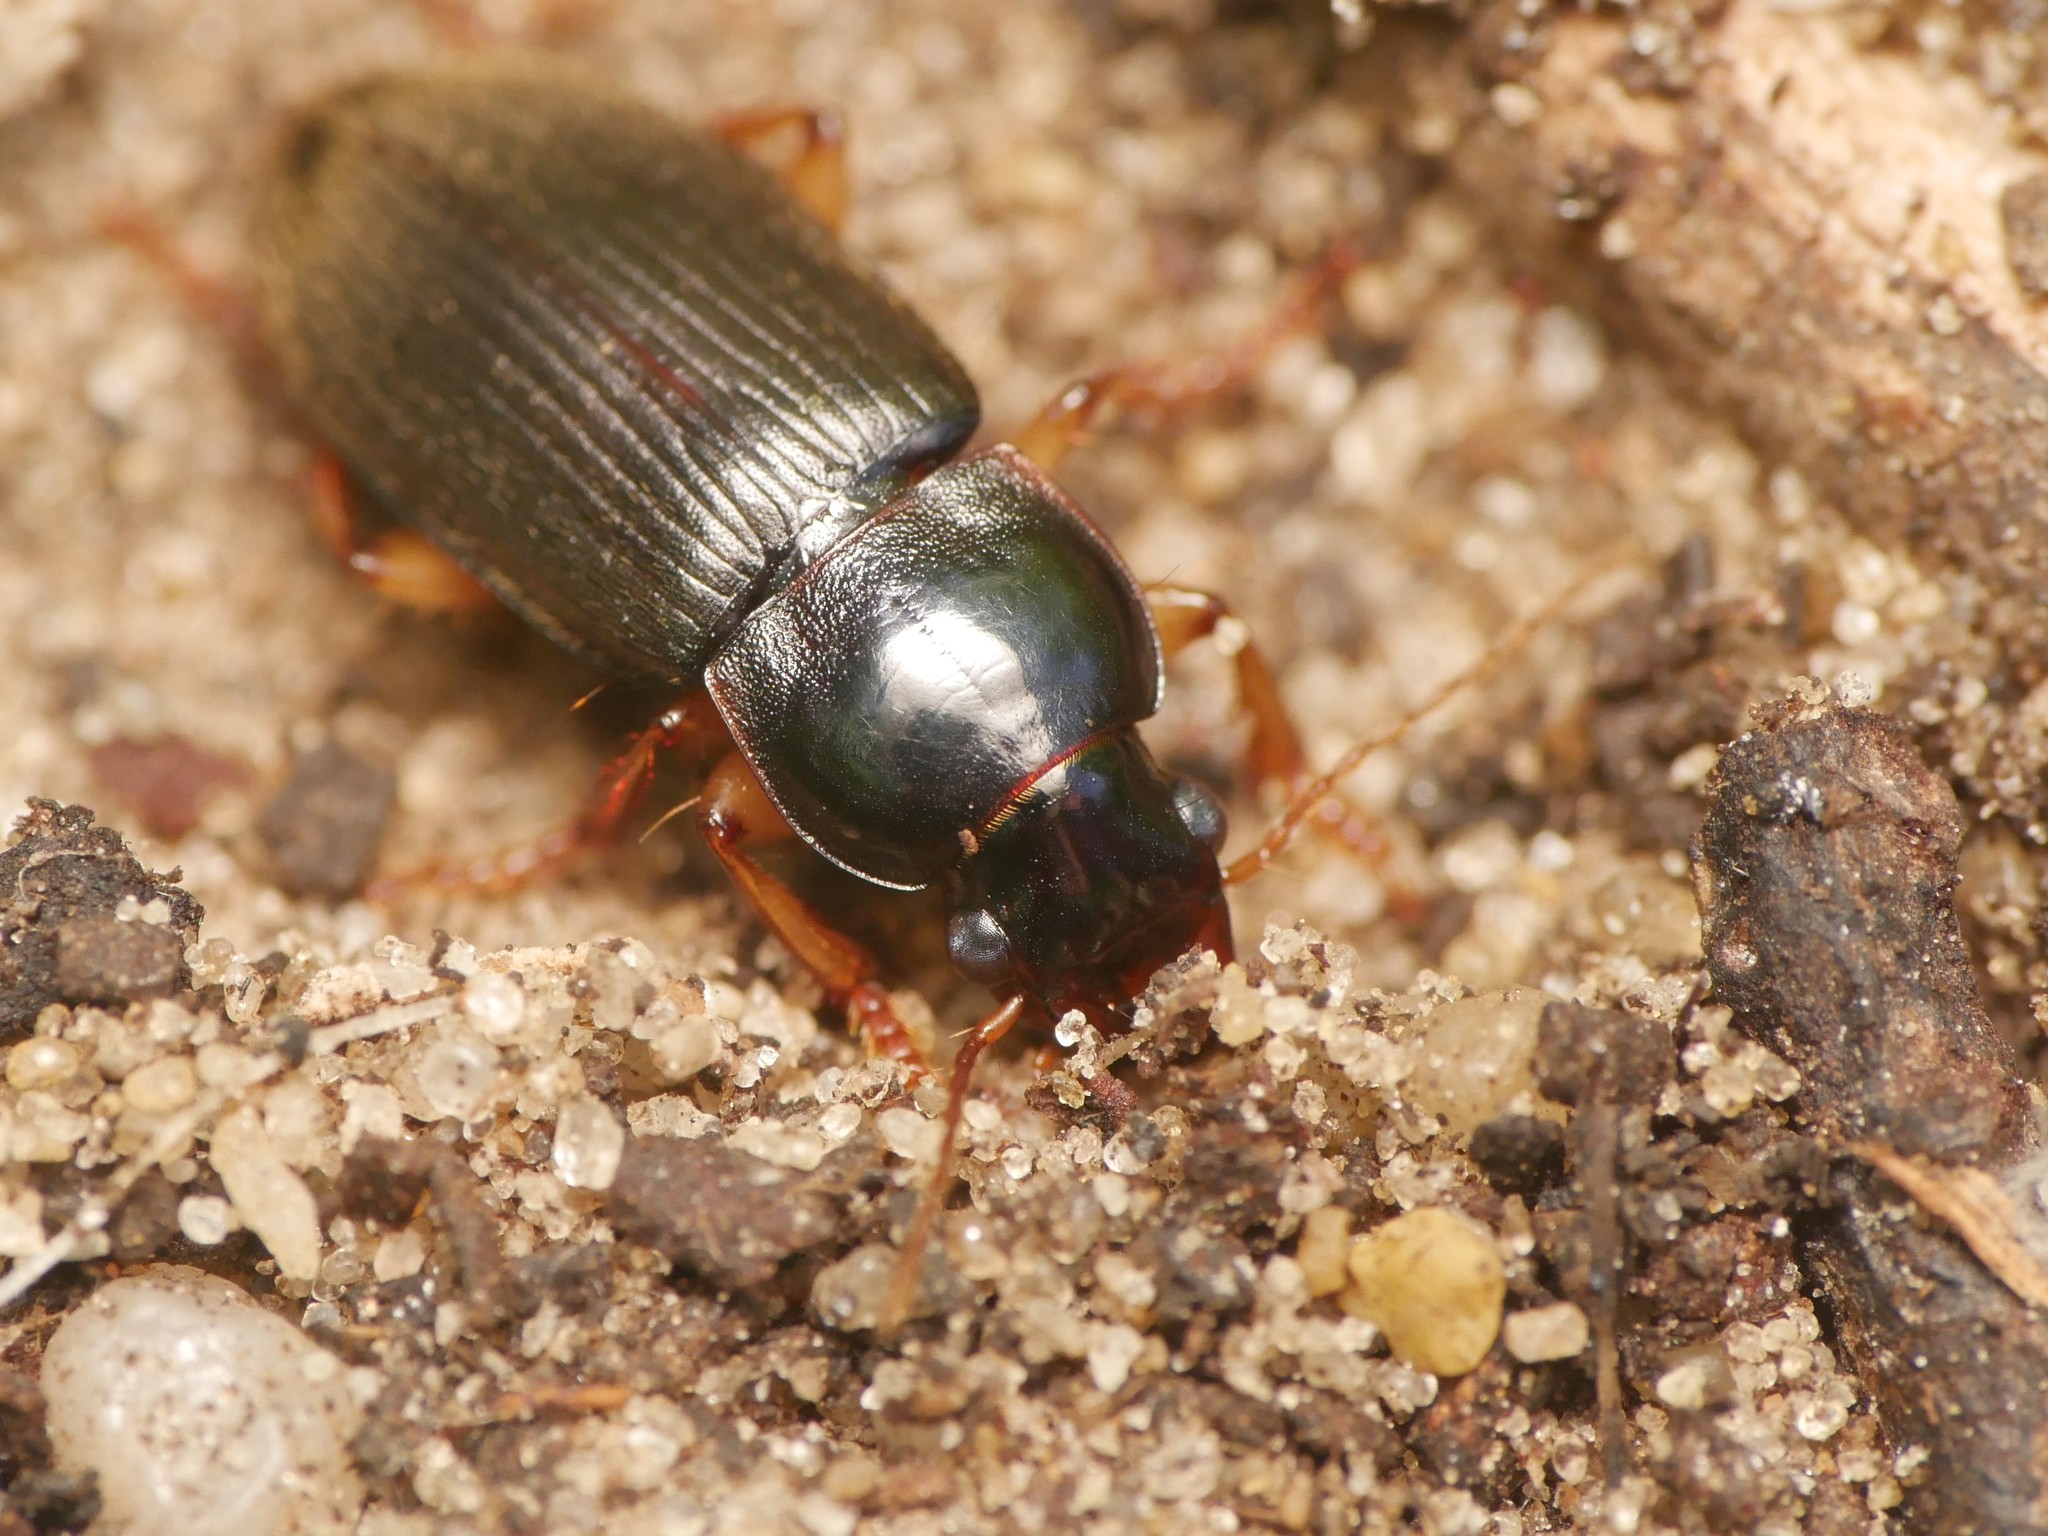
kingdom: Animalia
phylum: Arthropoda
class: Insecta
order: Coleoptera
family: Carabidae
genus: Harpalus
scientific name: Harpalus griseus
